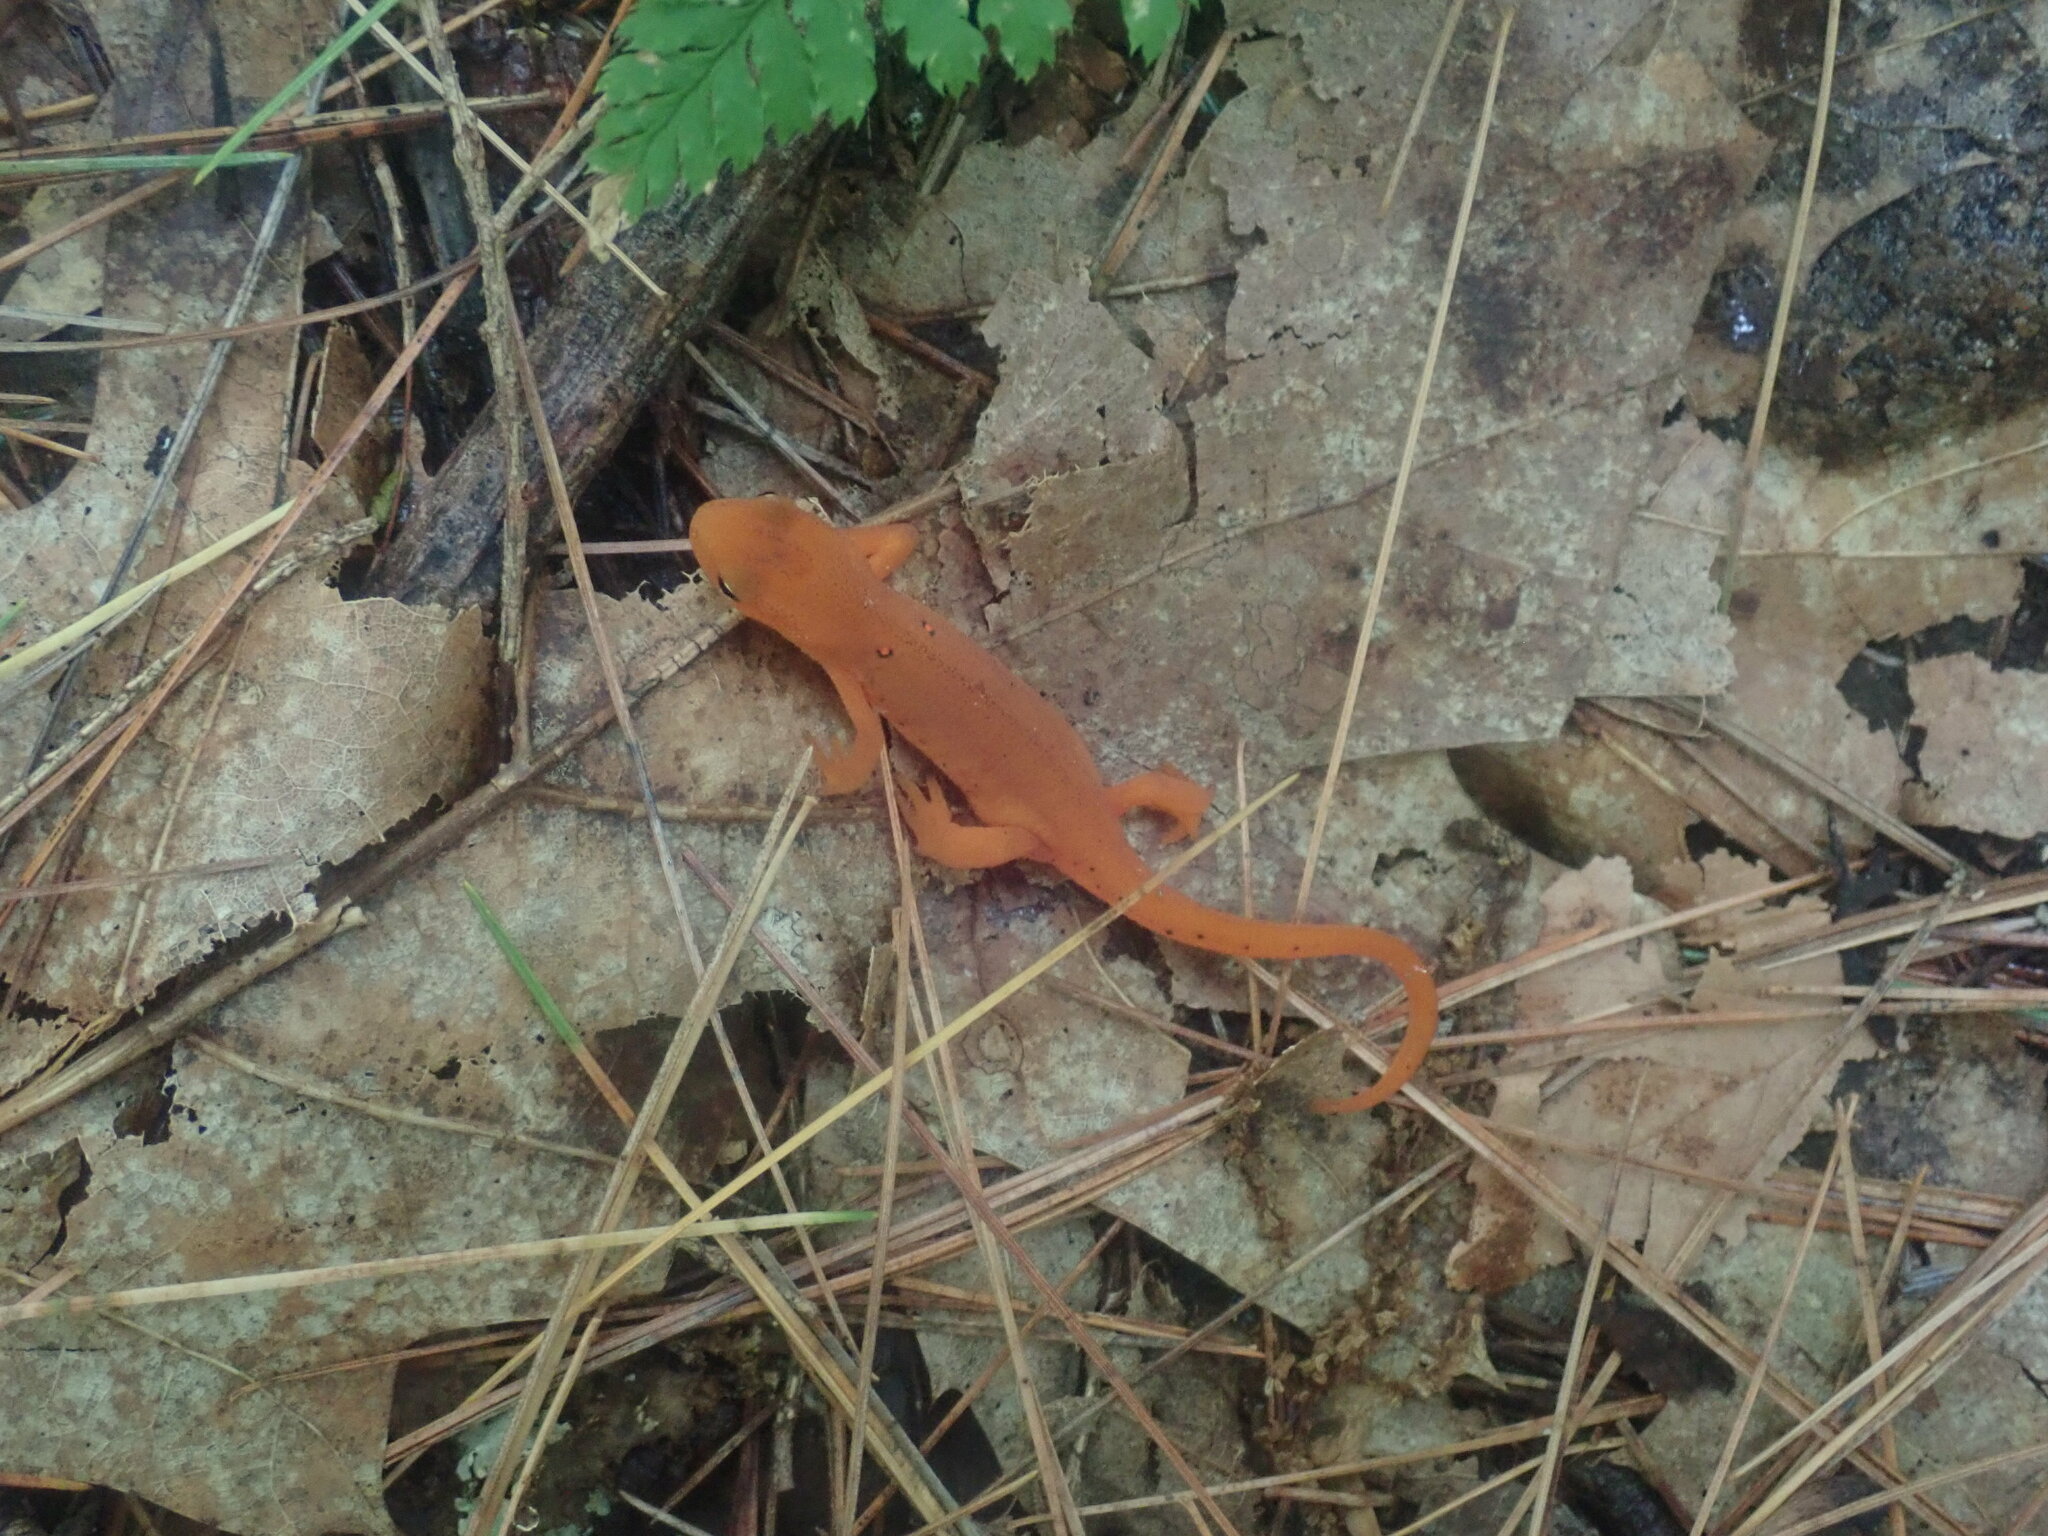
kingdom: Animalia
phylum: Chordata
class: Amphibia
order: Caudata
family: Salamandridae
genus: Notophthalmus
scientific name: Notophthalmus viridescens
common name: Eastern newt
